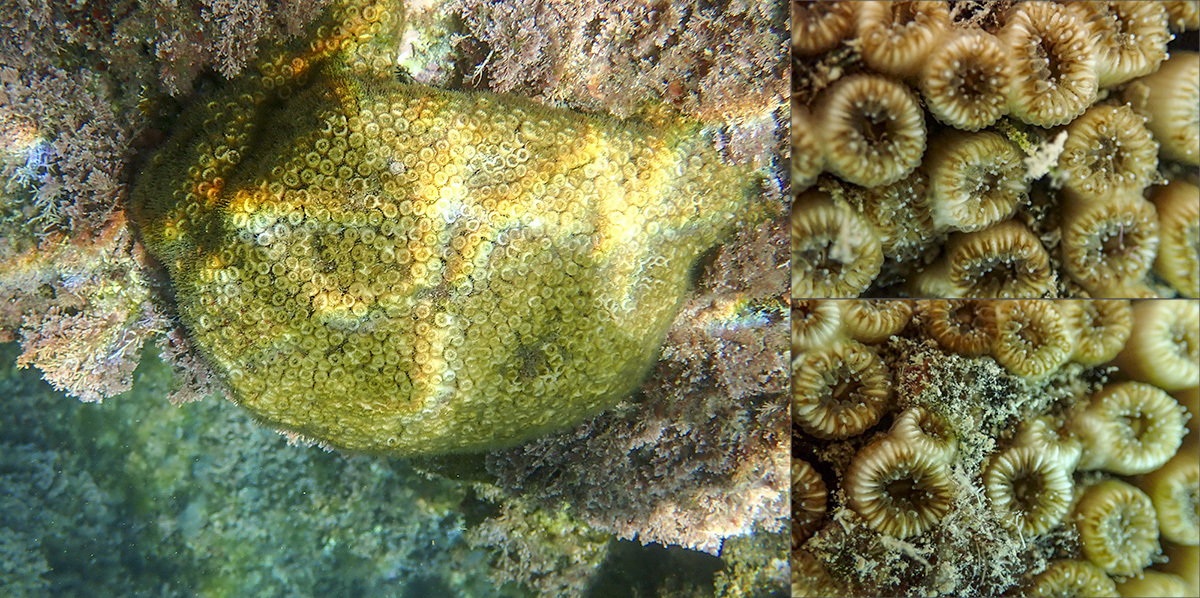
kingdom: Animalia
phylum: Cnidaria
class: Anthozoa
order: Scleractinia
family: Cladocoridae
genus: Cladocora
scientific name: Cladocora caespitosa
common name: Cladocora
